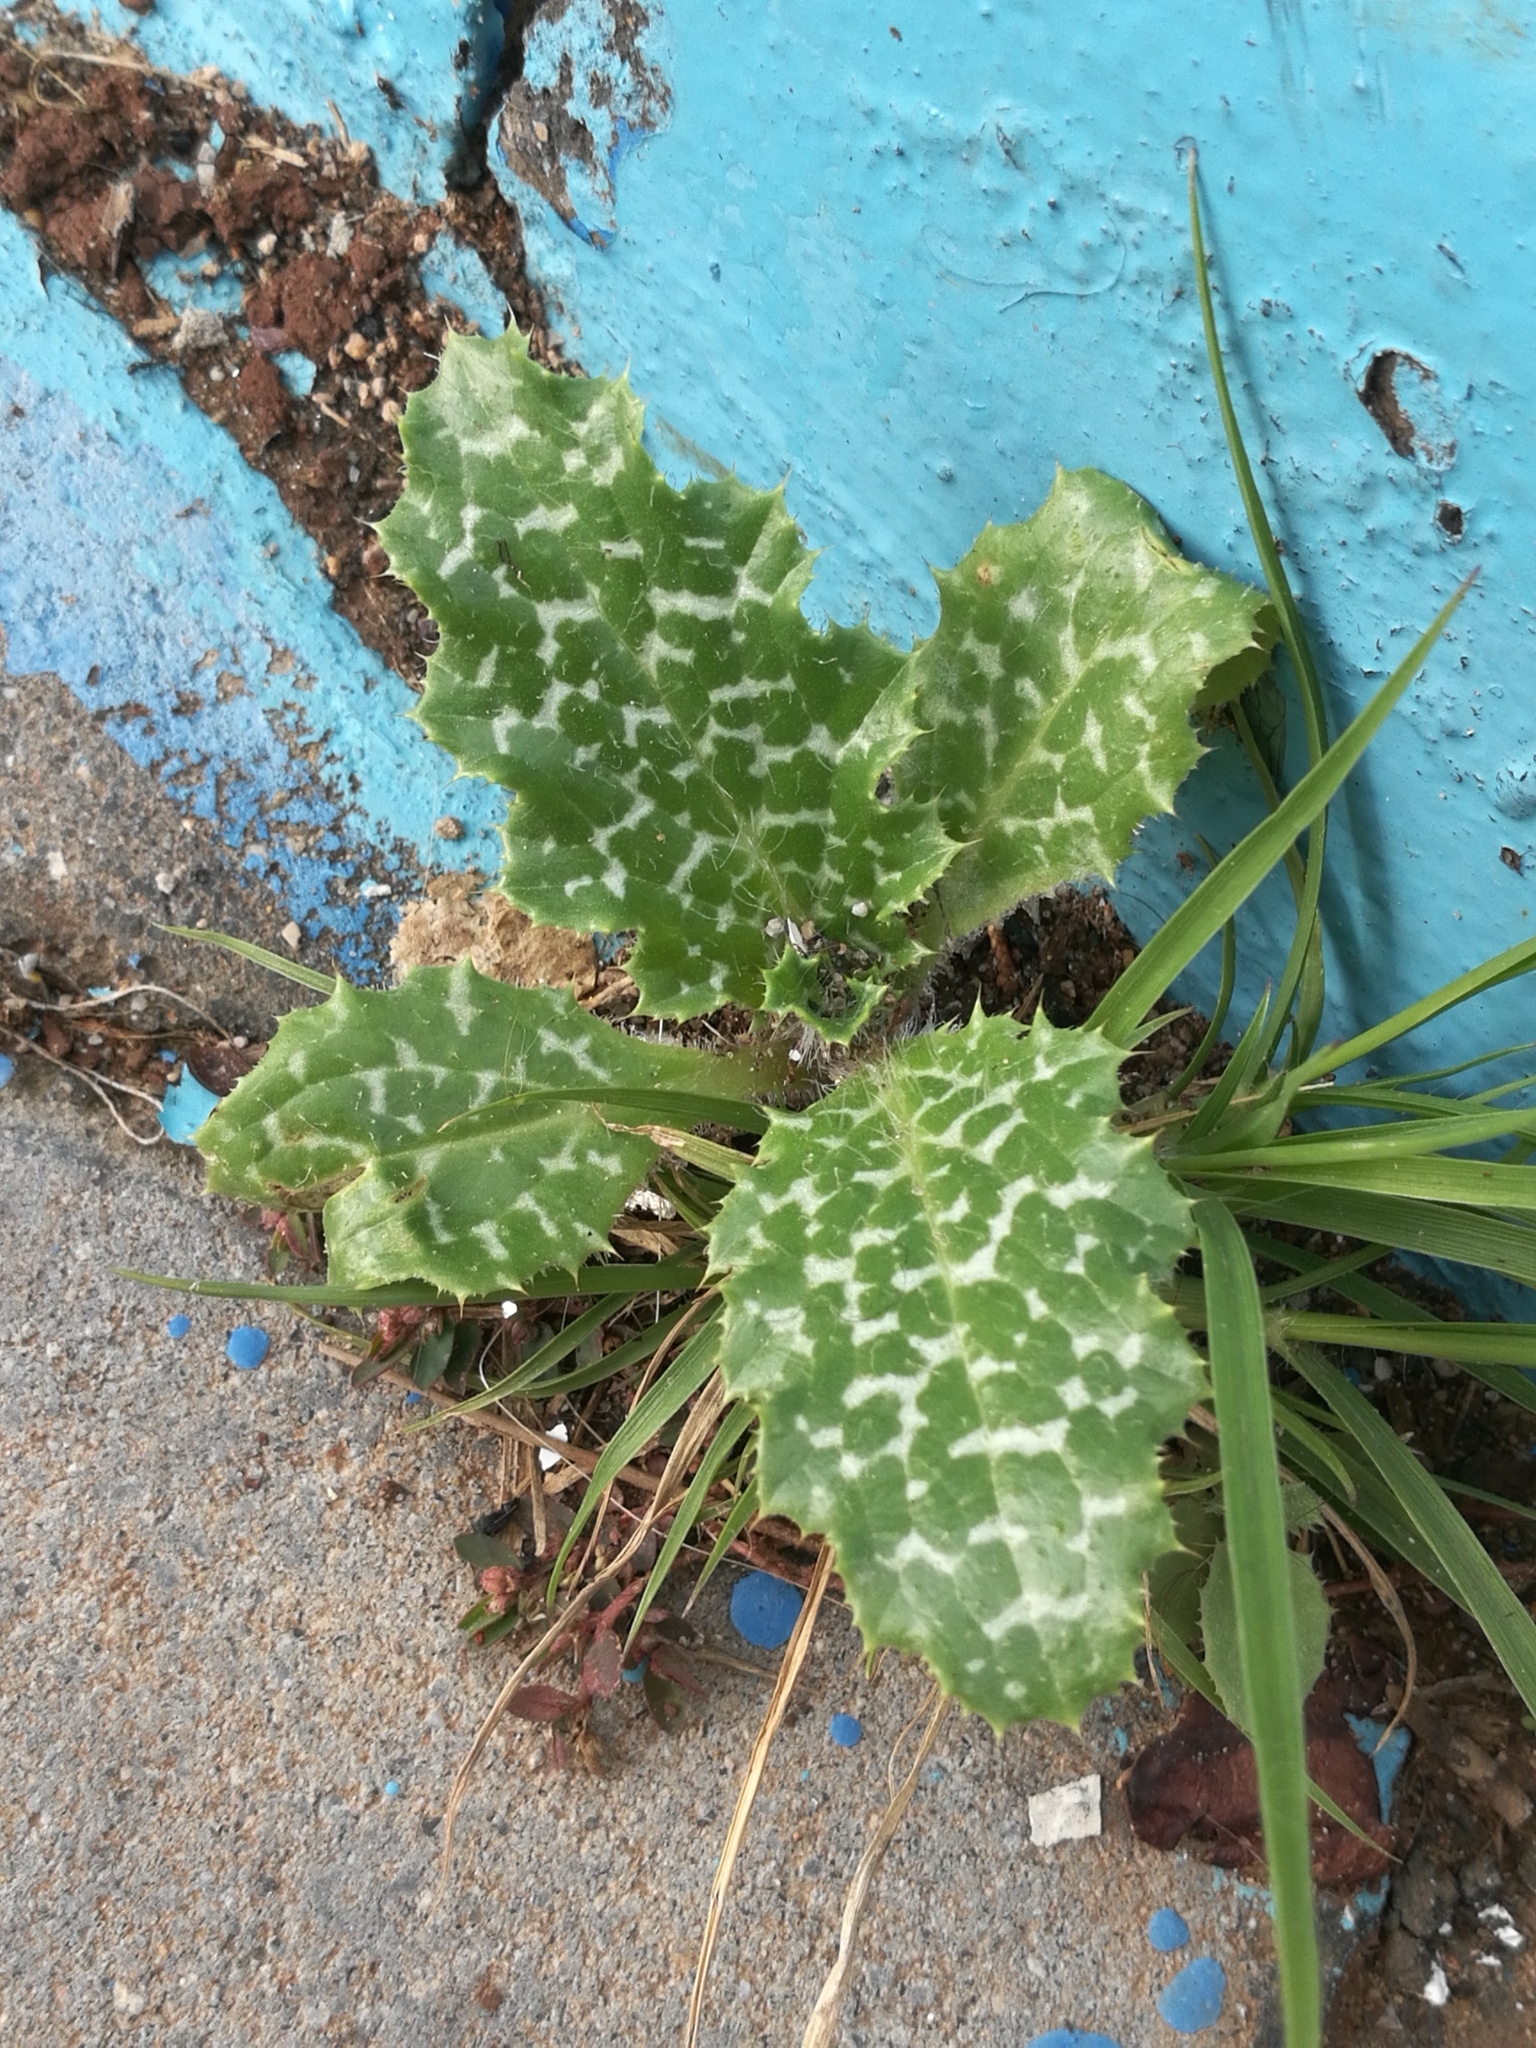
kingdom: Plantae
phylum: Tracheophyta
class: Magnoliopsida
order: Asterales
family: Asteraceae
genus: Silybum
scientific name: Silybum marianum
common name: Milk thistle
